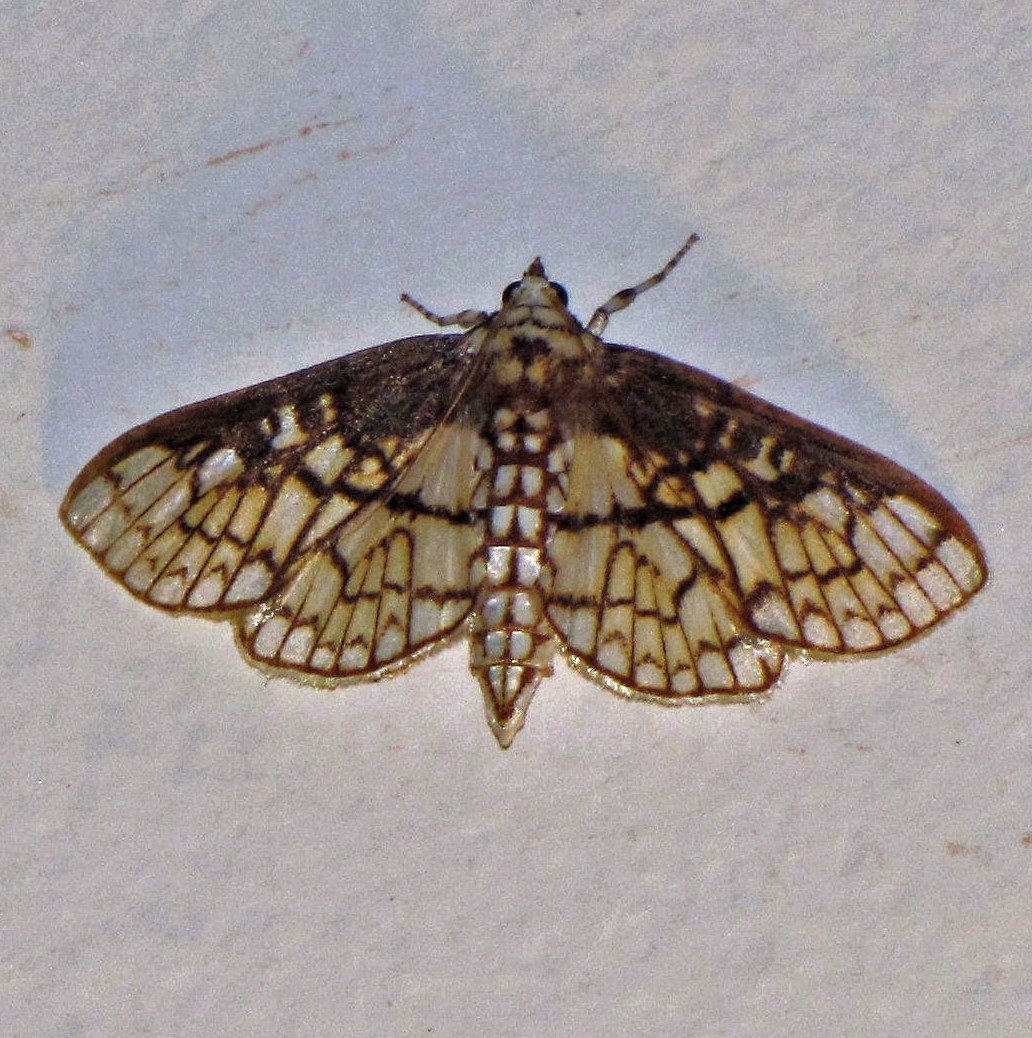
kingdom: Animalia
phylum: Arthropoda
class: Insecta
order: Lepidoptera
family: Crambidae
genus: Polygrammodes
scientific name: Polygrammodes dubialis
